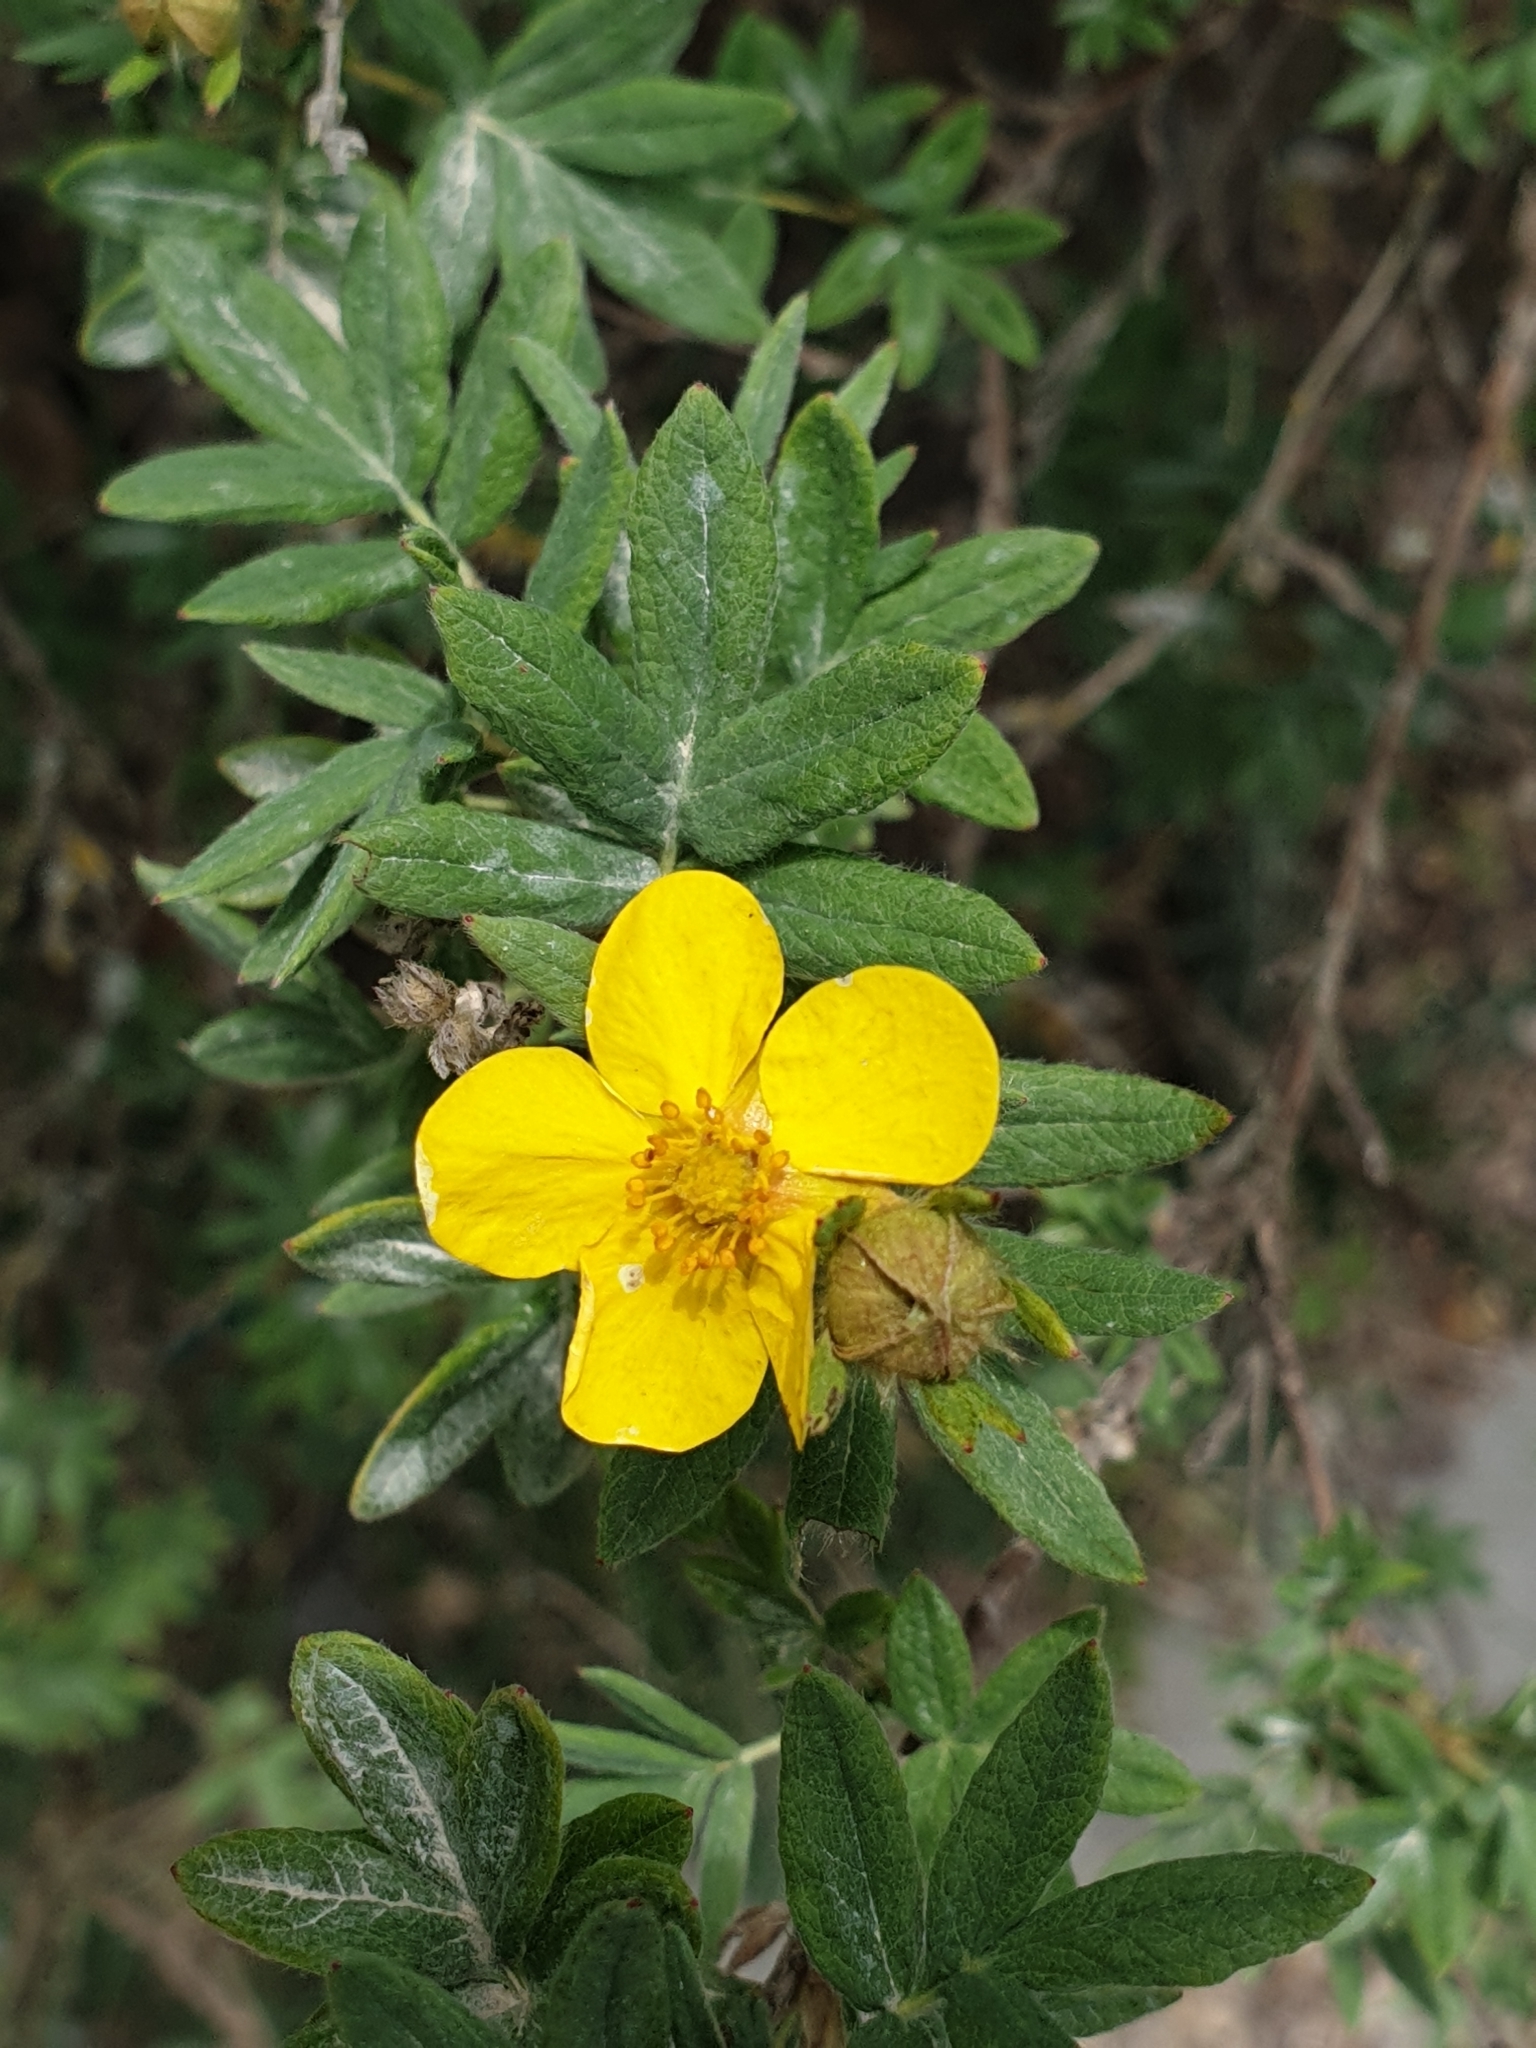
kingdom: Plantae
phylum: Tracheophyta
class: Magnoliopsida
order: Rosales
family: Rosaceae
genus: Dasiphora
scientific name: Dasiphora fruticosa
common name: Shrubby cinquefoil
